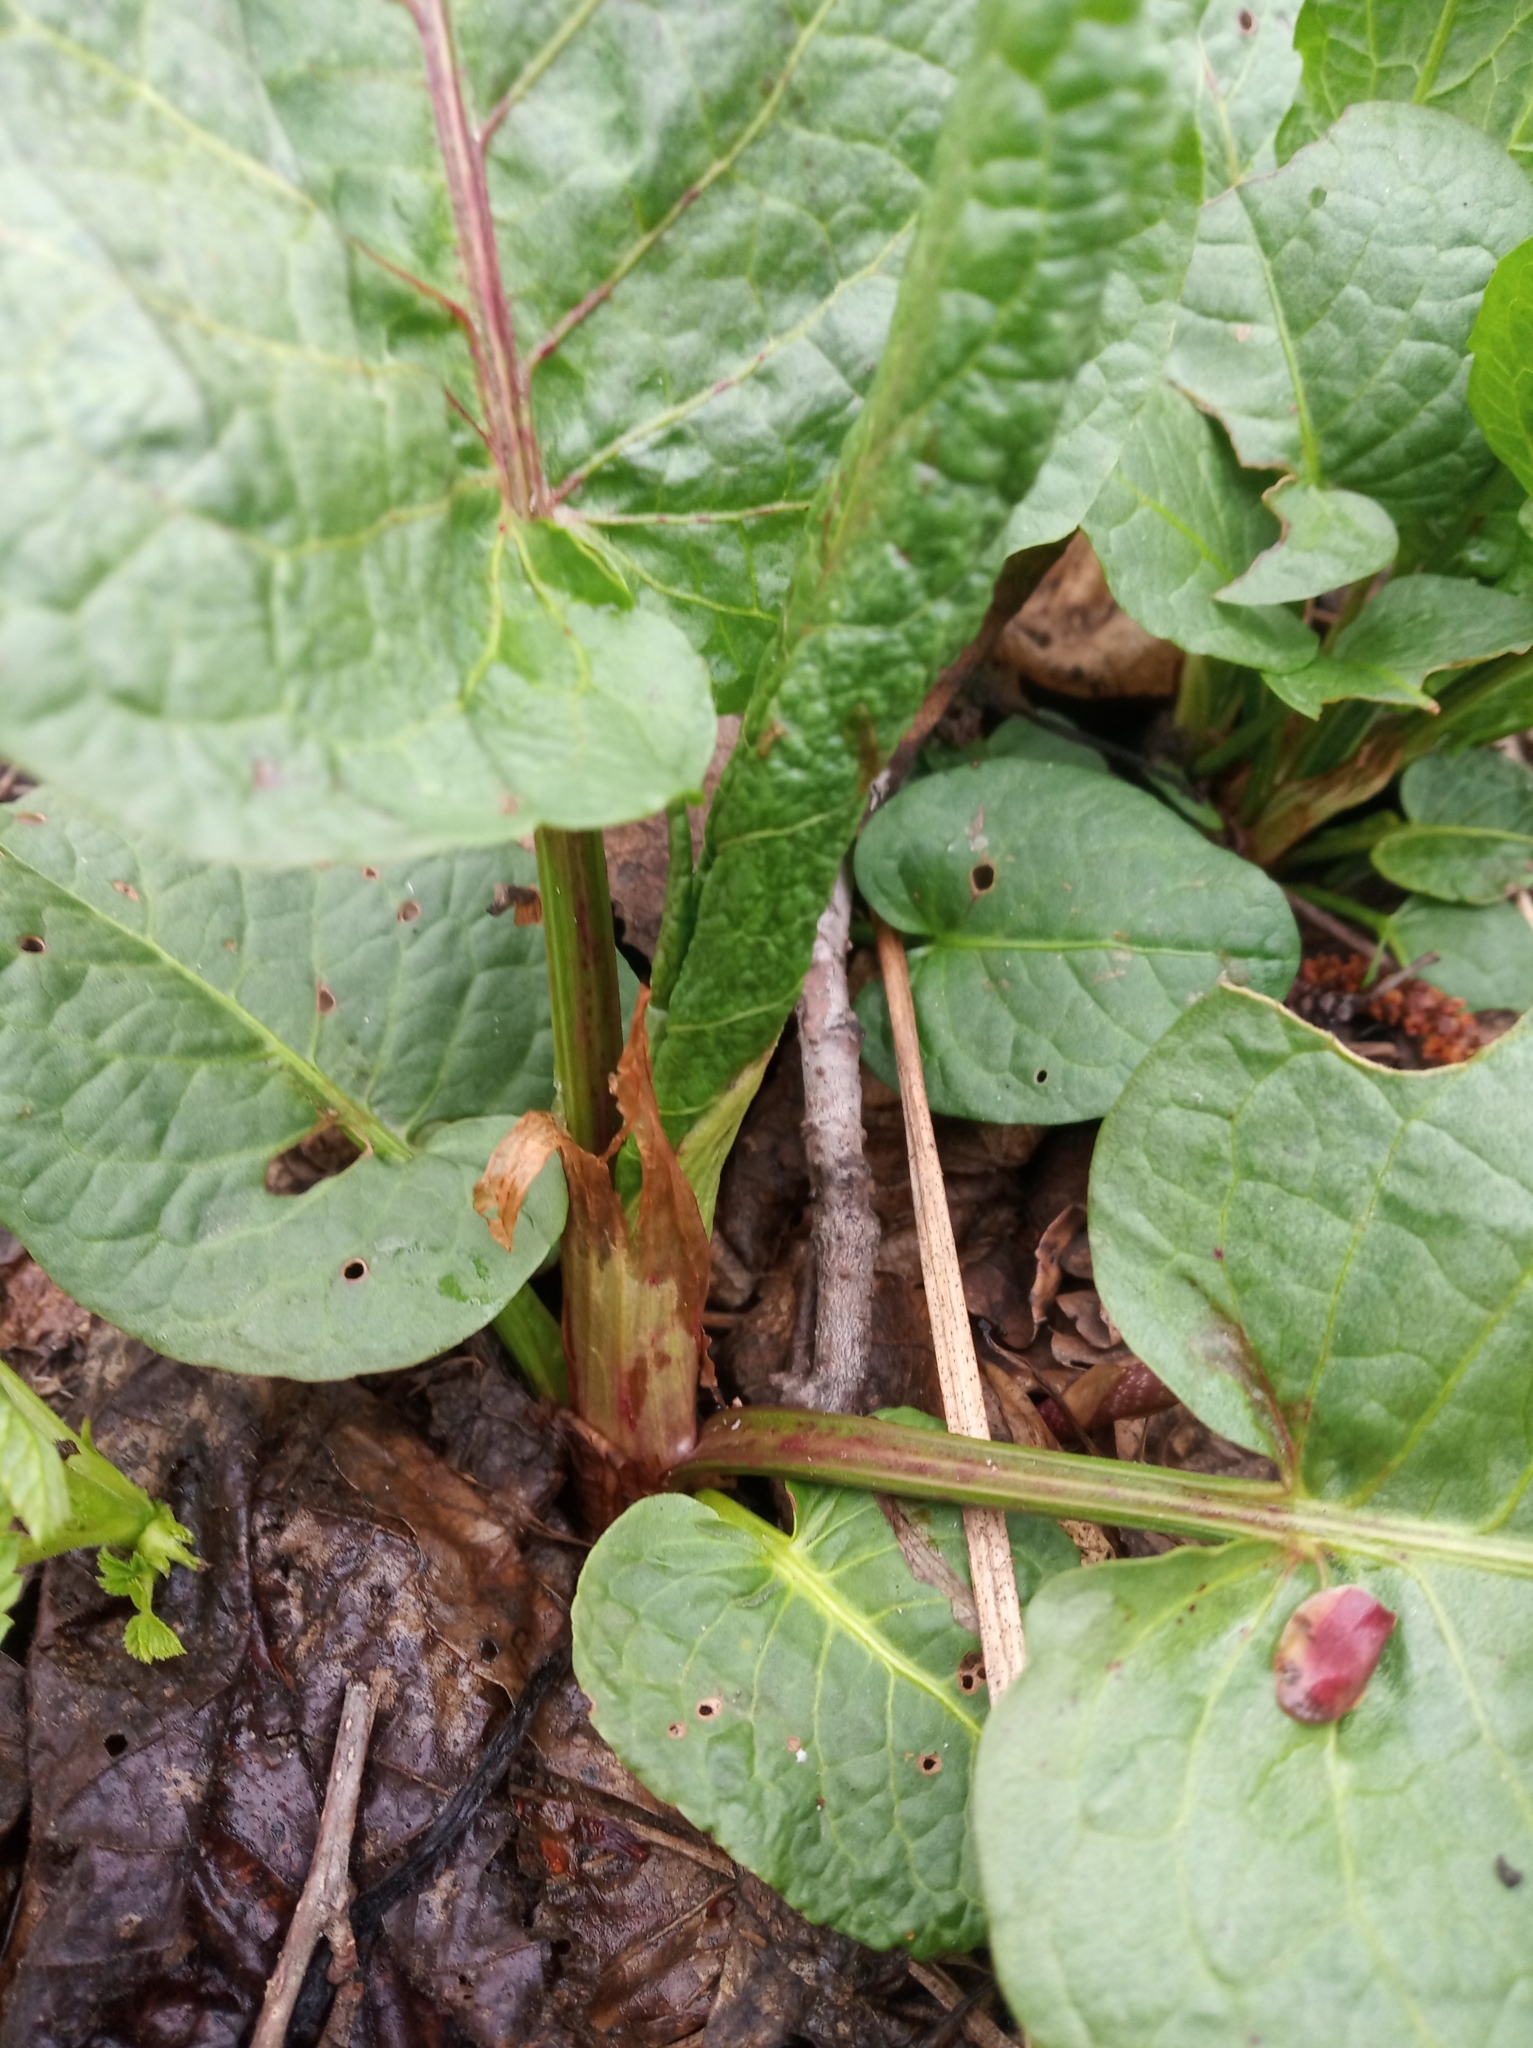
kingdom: Plantae
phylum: Tracheophyta
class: Magnoliopsida
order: Caryophyllales
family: Polygonaceae
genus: Rumex
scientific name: Rumex obtusifolius
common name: Bitter dock
